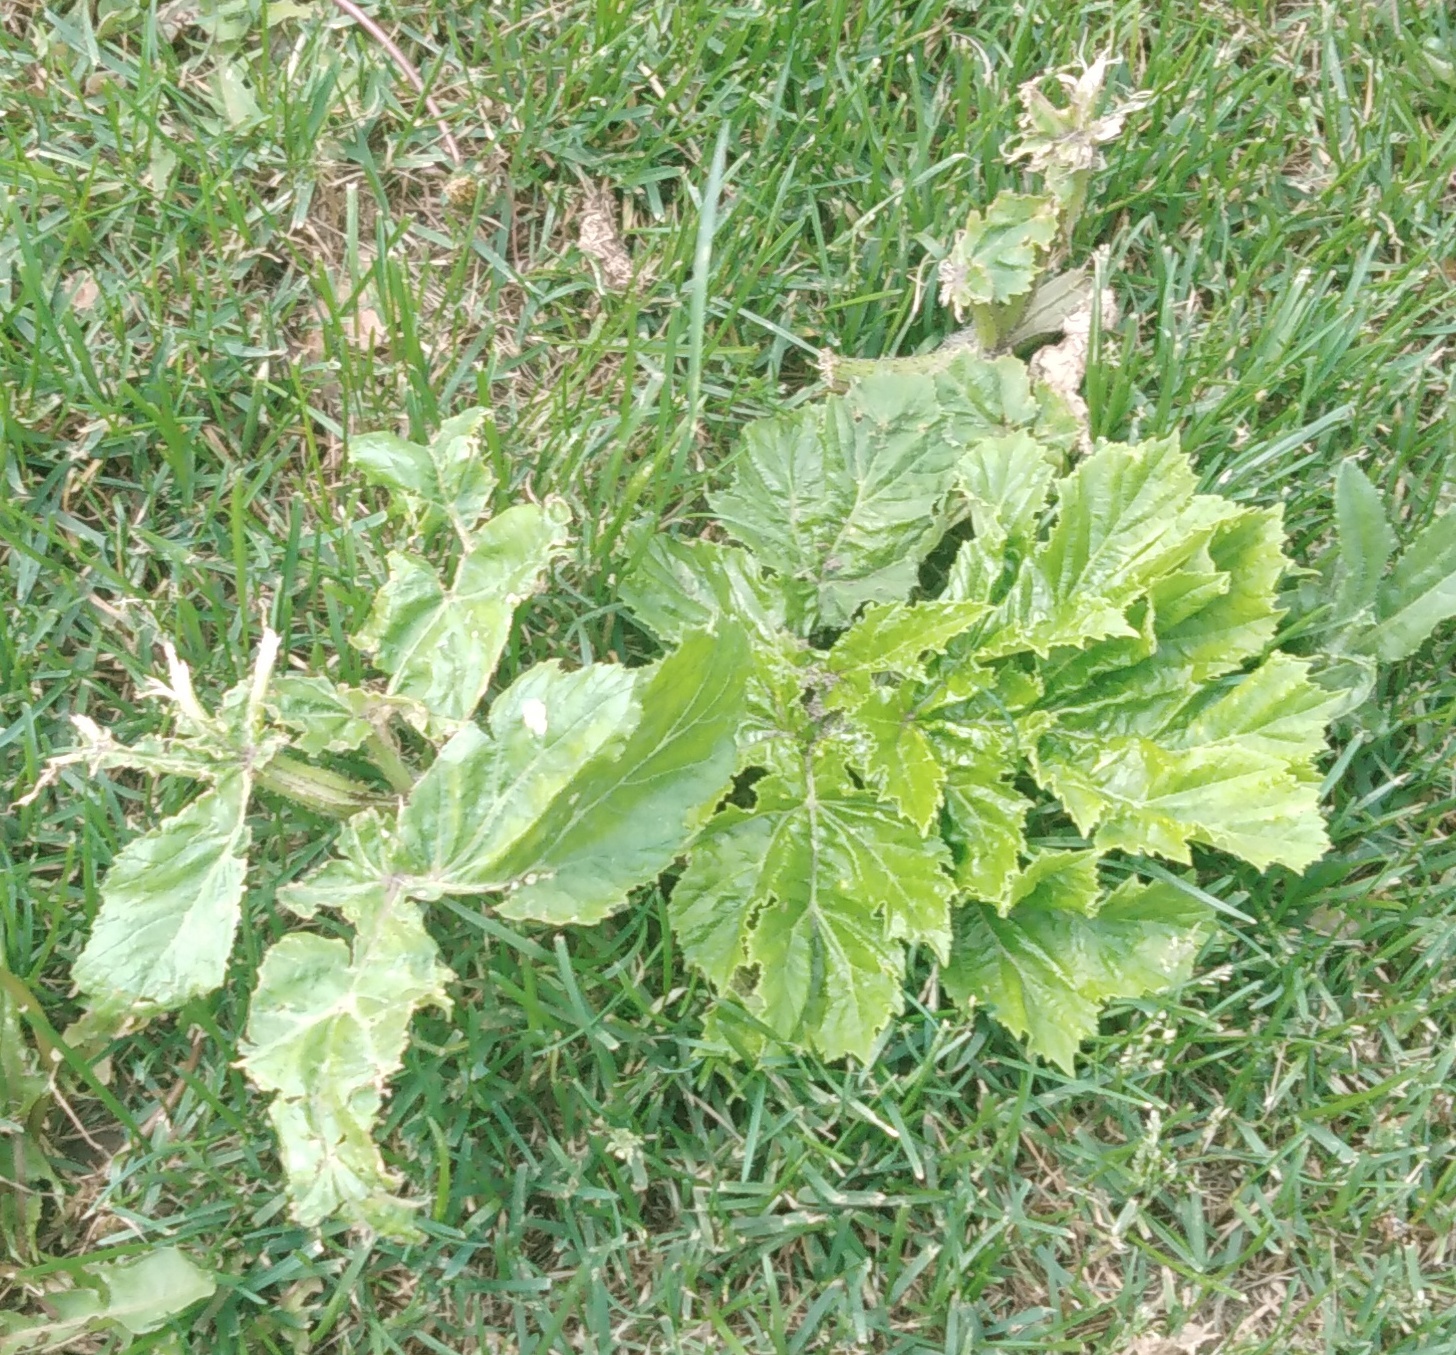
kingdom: Plantae
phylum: Tracheophyta
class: Magnoliopsida
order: Apiales
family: Apiaceae
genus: Heracleum
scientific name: Heracleum sosnowskyi
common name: Sosnowsky's hogweed
